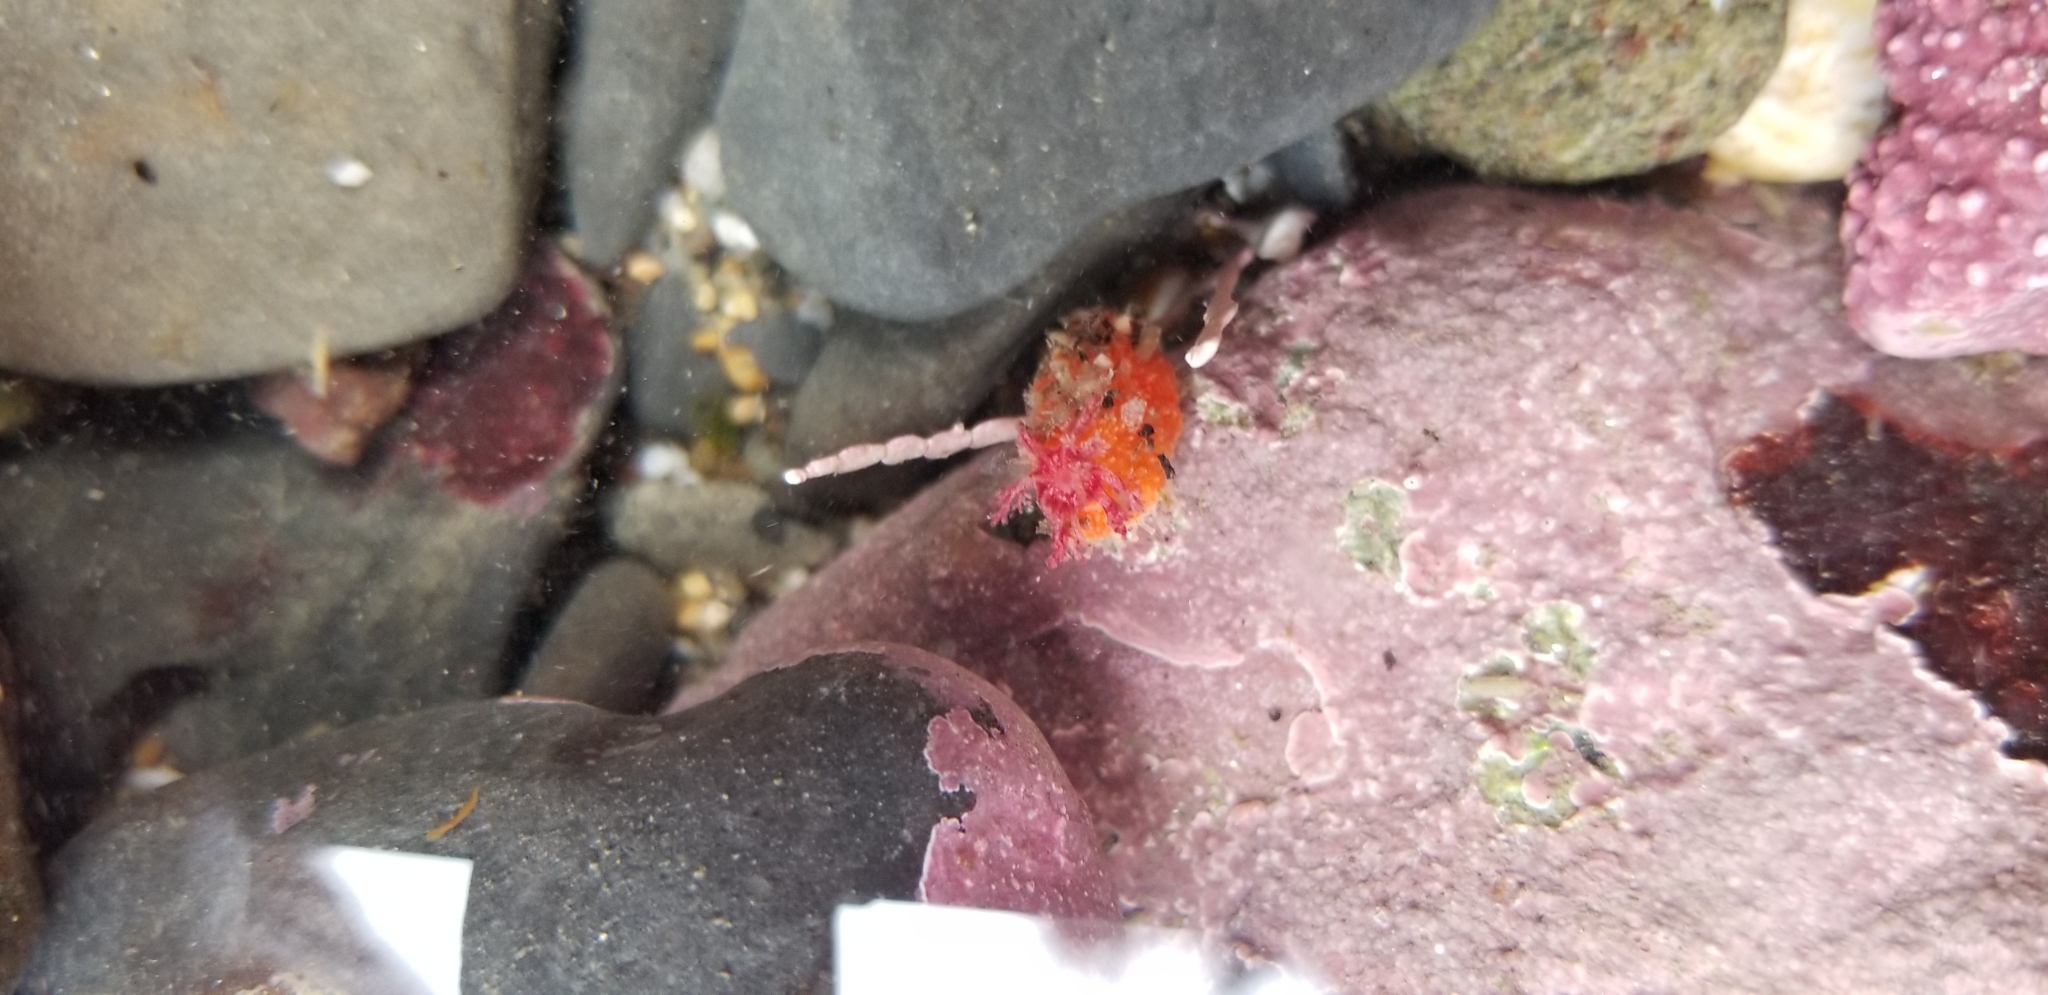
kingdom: Animalia
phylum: Echinodermata
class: Holothuroidea
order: Dendrochirotida
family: Psolidae
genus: Lissothuria
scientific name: Lissothuria nutriens
